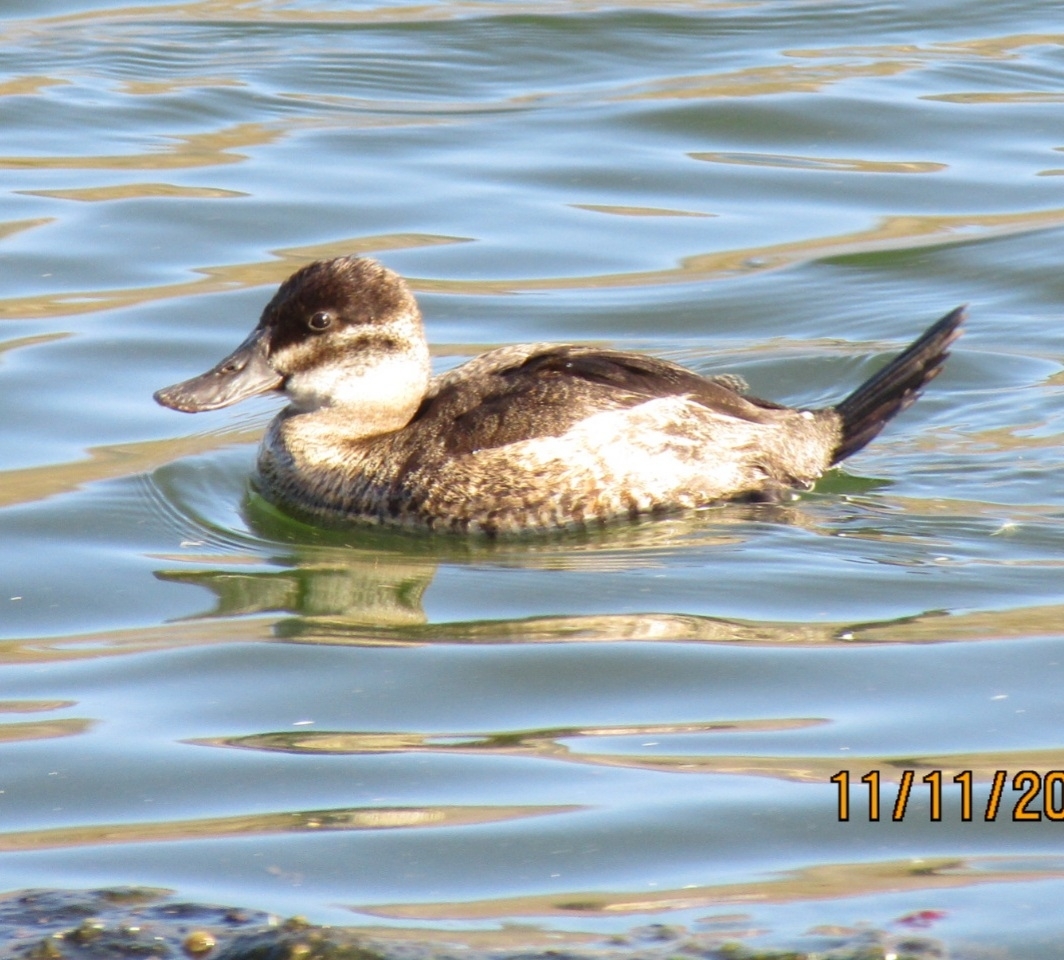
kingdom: Animalia
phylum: Chordata
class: Aves
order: Anseriformes
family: Anatidae
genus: Oxyura
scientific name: Oxyura jamaicensis
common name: Ruddy duck
